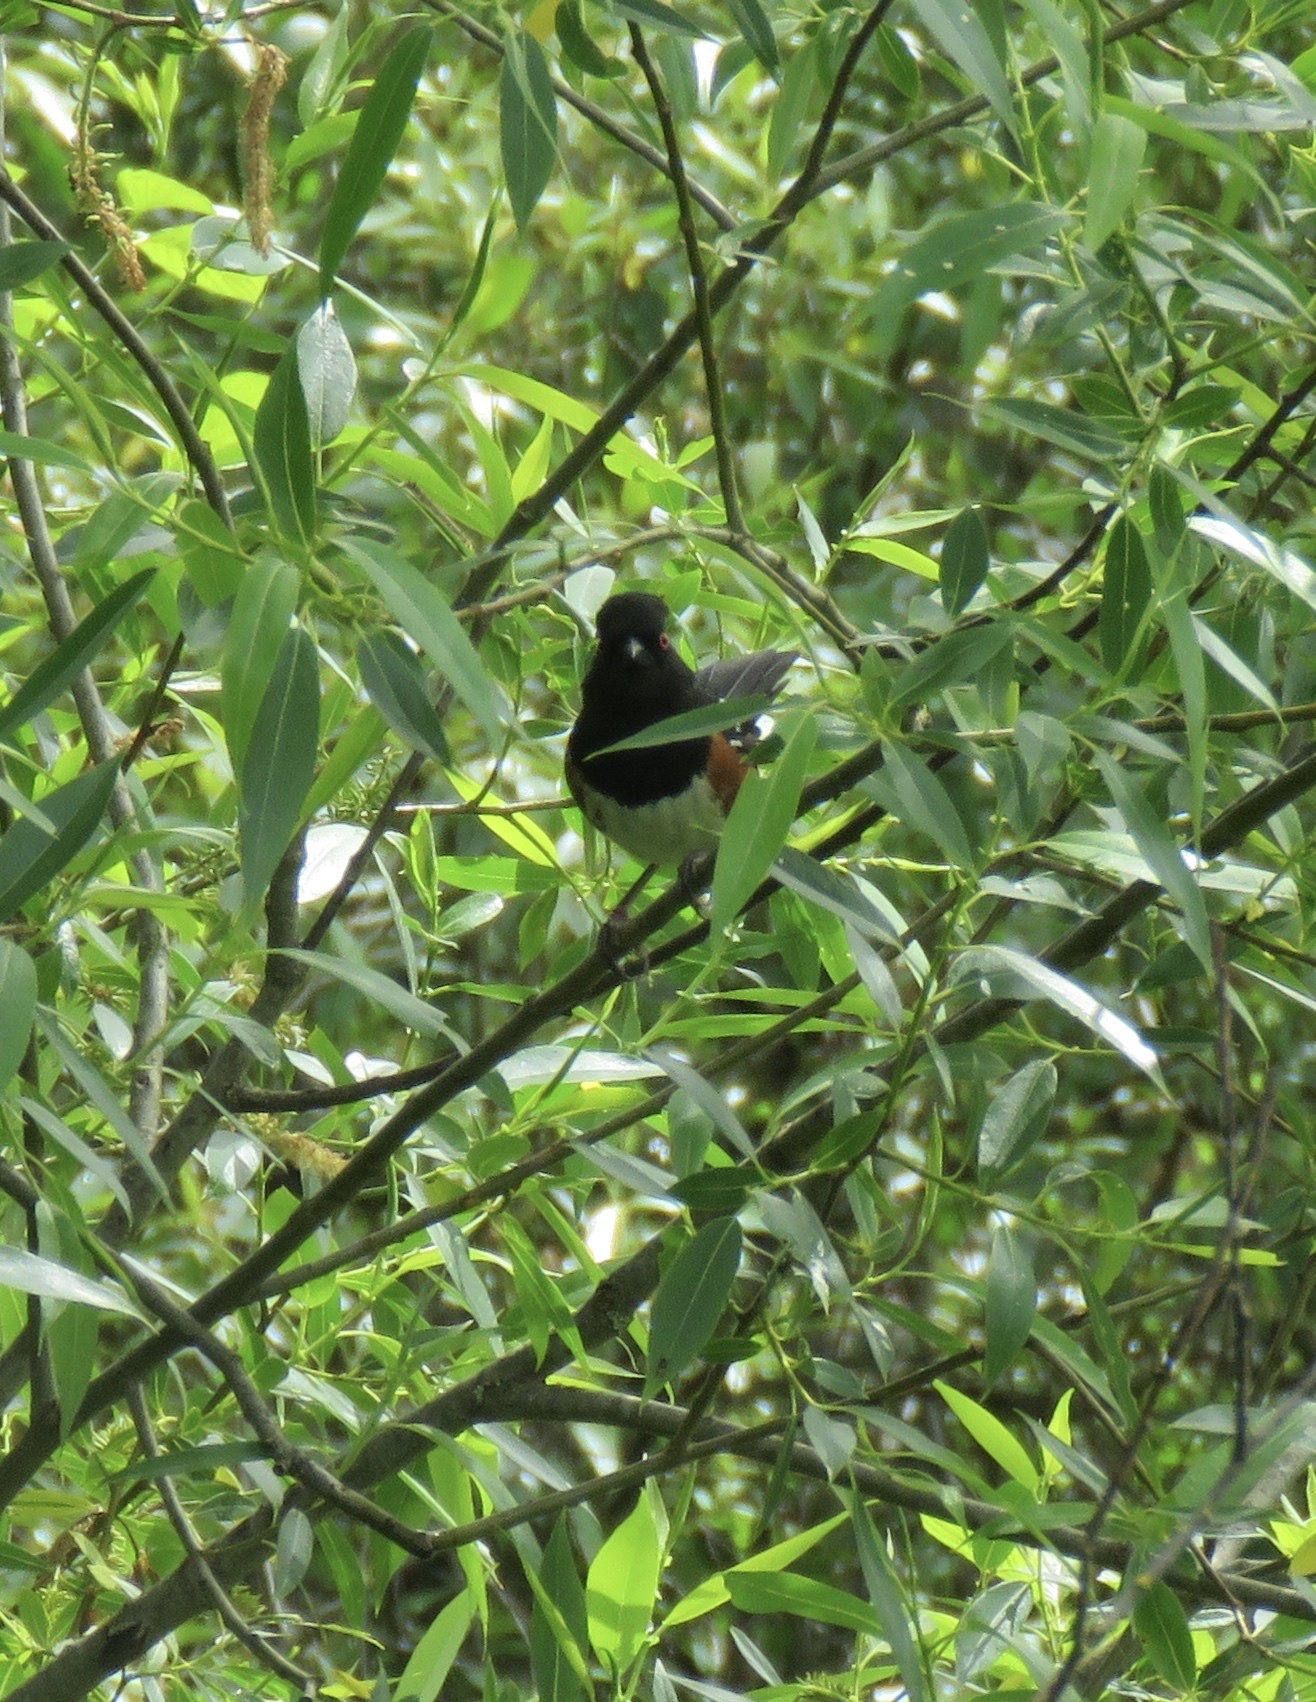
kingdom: Animalia
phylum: Chordata
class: Aves
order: Passeriformes
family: Passerellidae
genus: Pipilo
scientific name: Pipilo maculatus
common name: Spotted towhee
